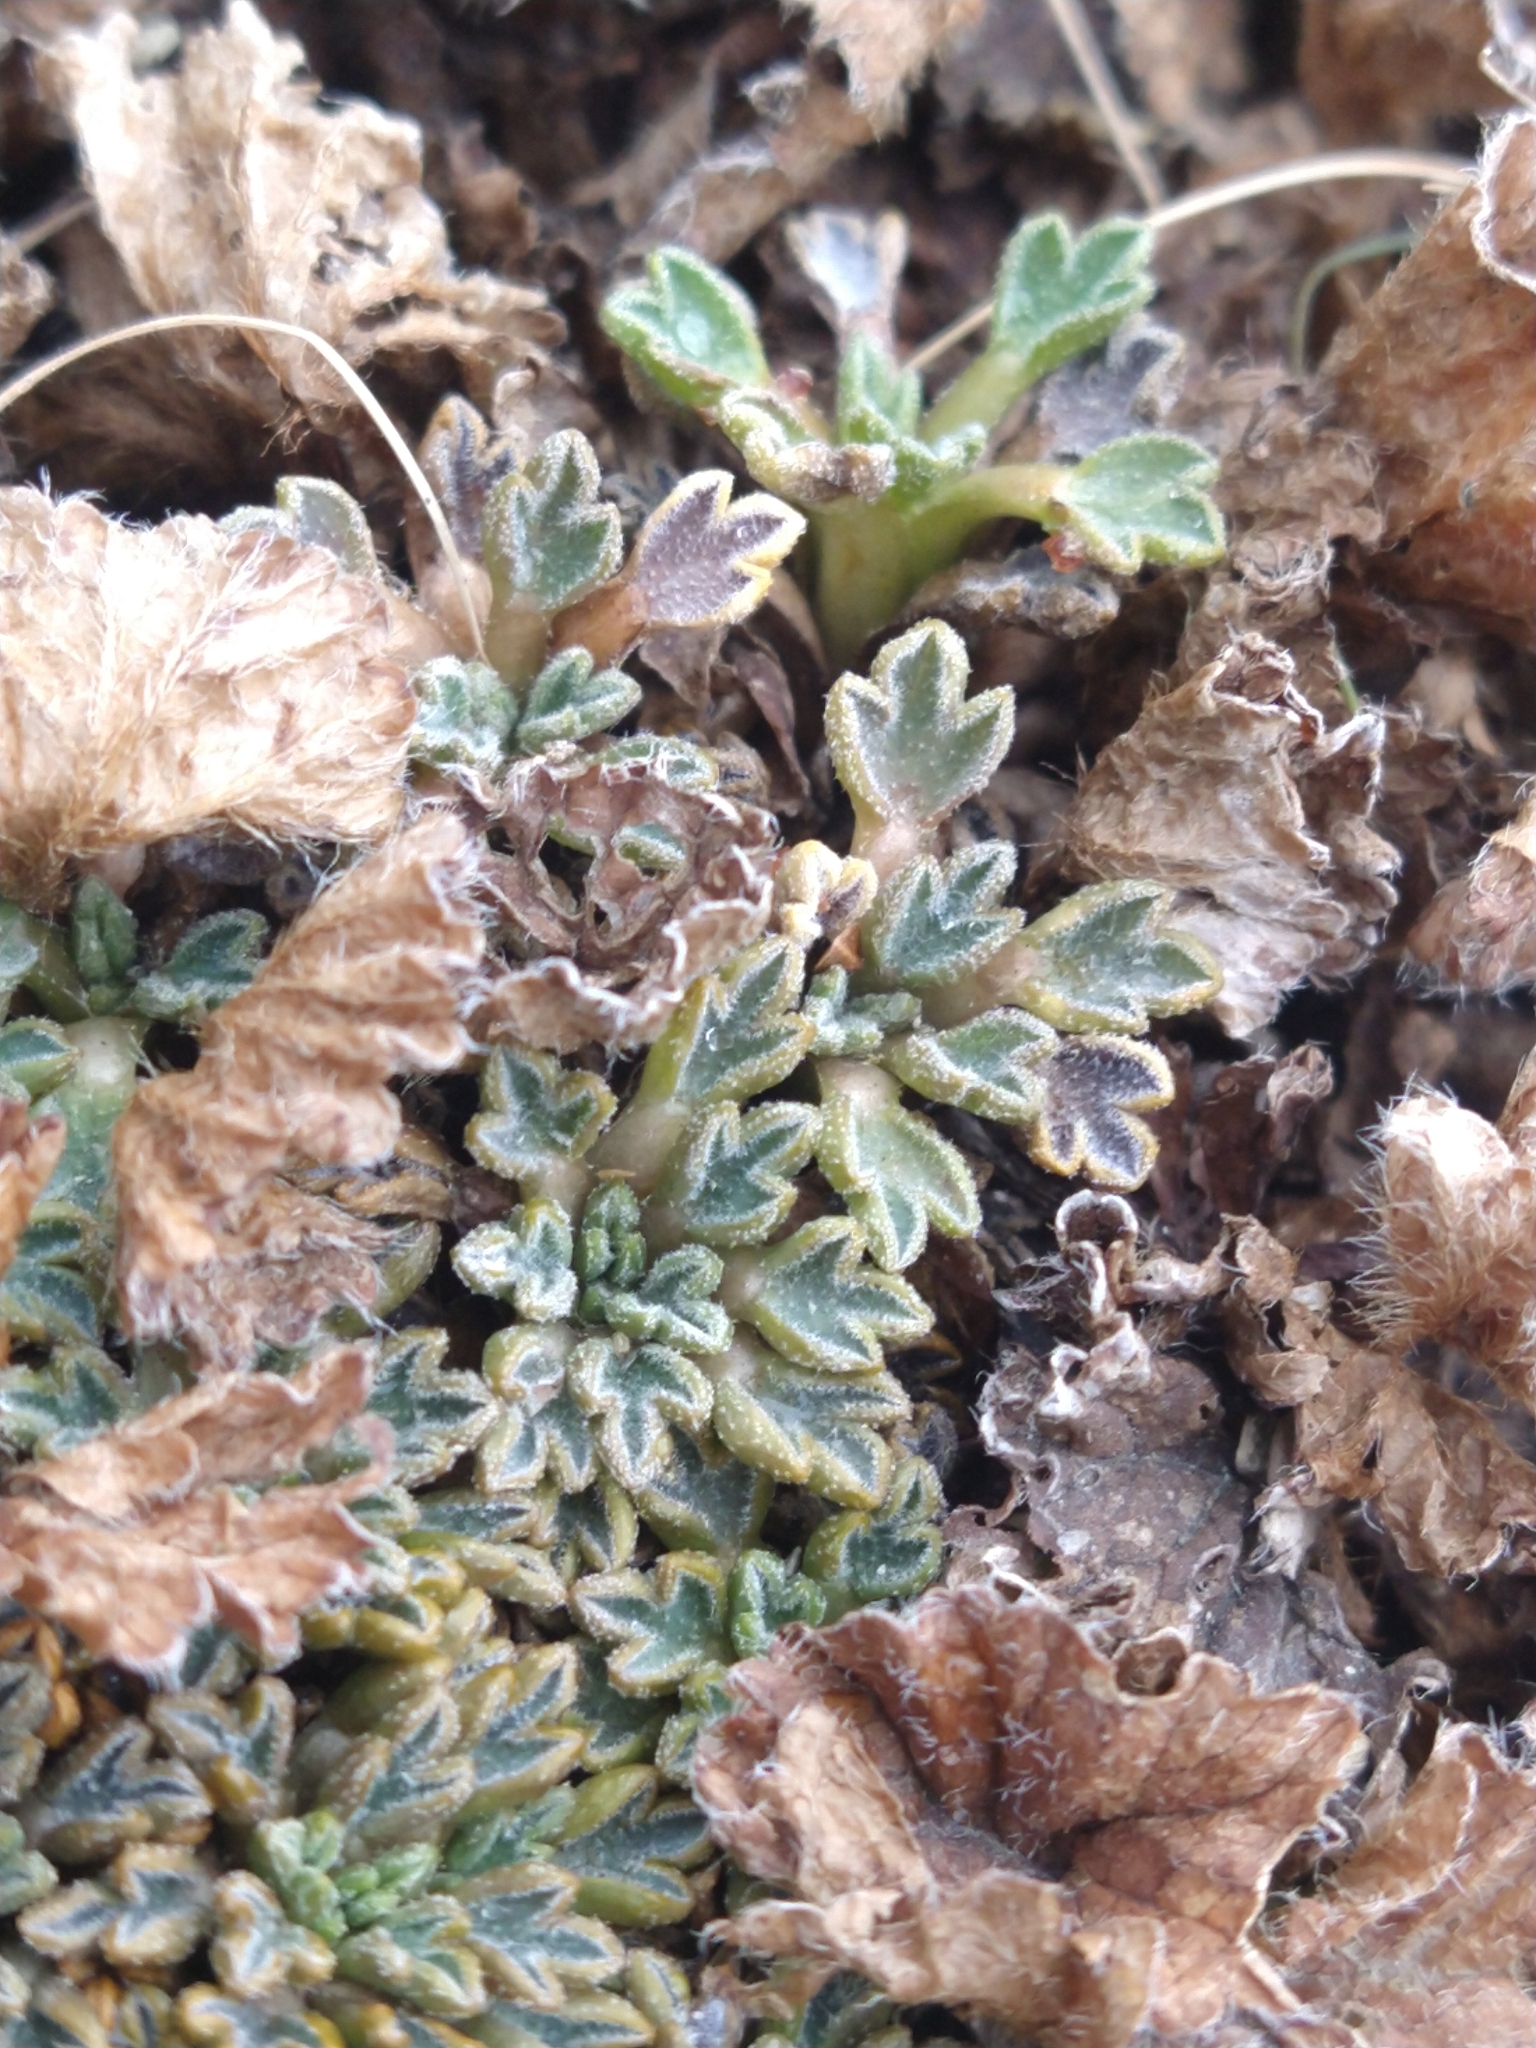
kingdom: Plantae
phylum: Tracheophyta
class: Magnoliopsida
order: Apiales
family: Apiaceae
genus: Bolax
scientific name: Bolax gummifera
